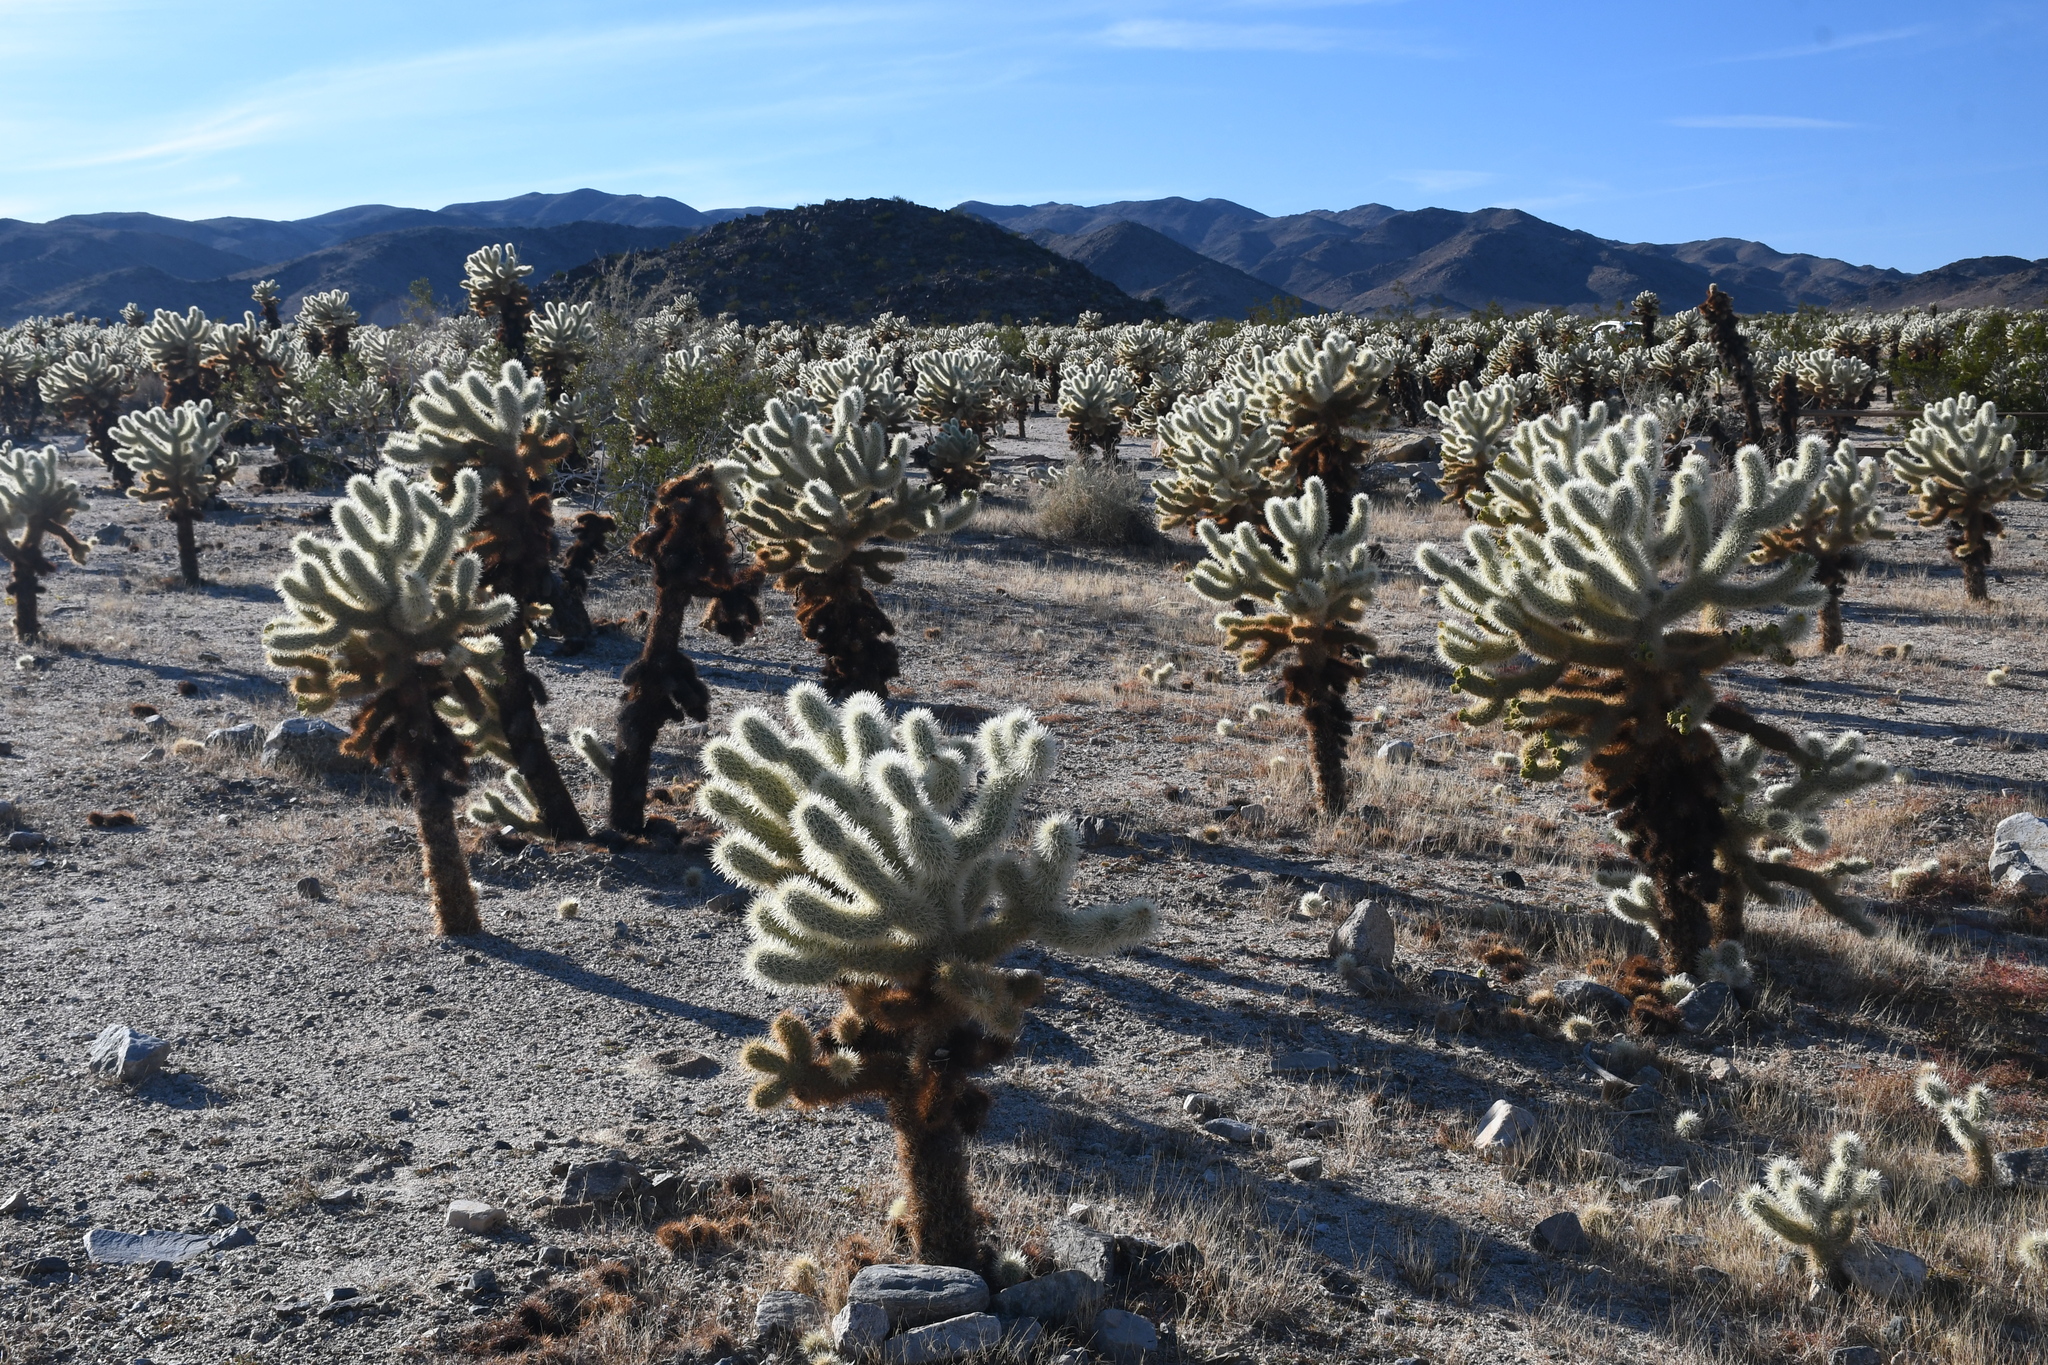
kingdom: Plantae
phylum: Tracheophyta
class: Magnoliopsida
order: Caryophyllales
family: Cactaceae
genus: Cylindropuntia
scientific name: Cylindropuntia fosbergii
